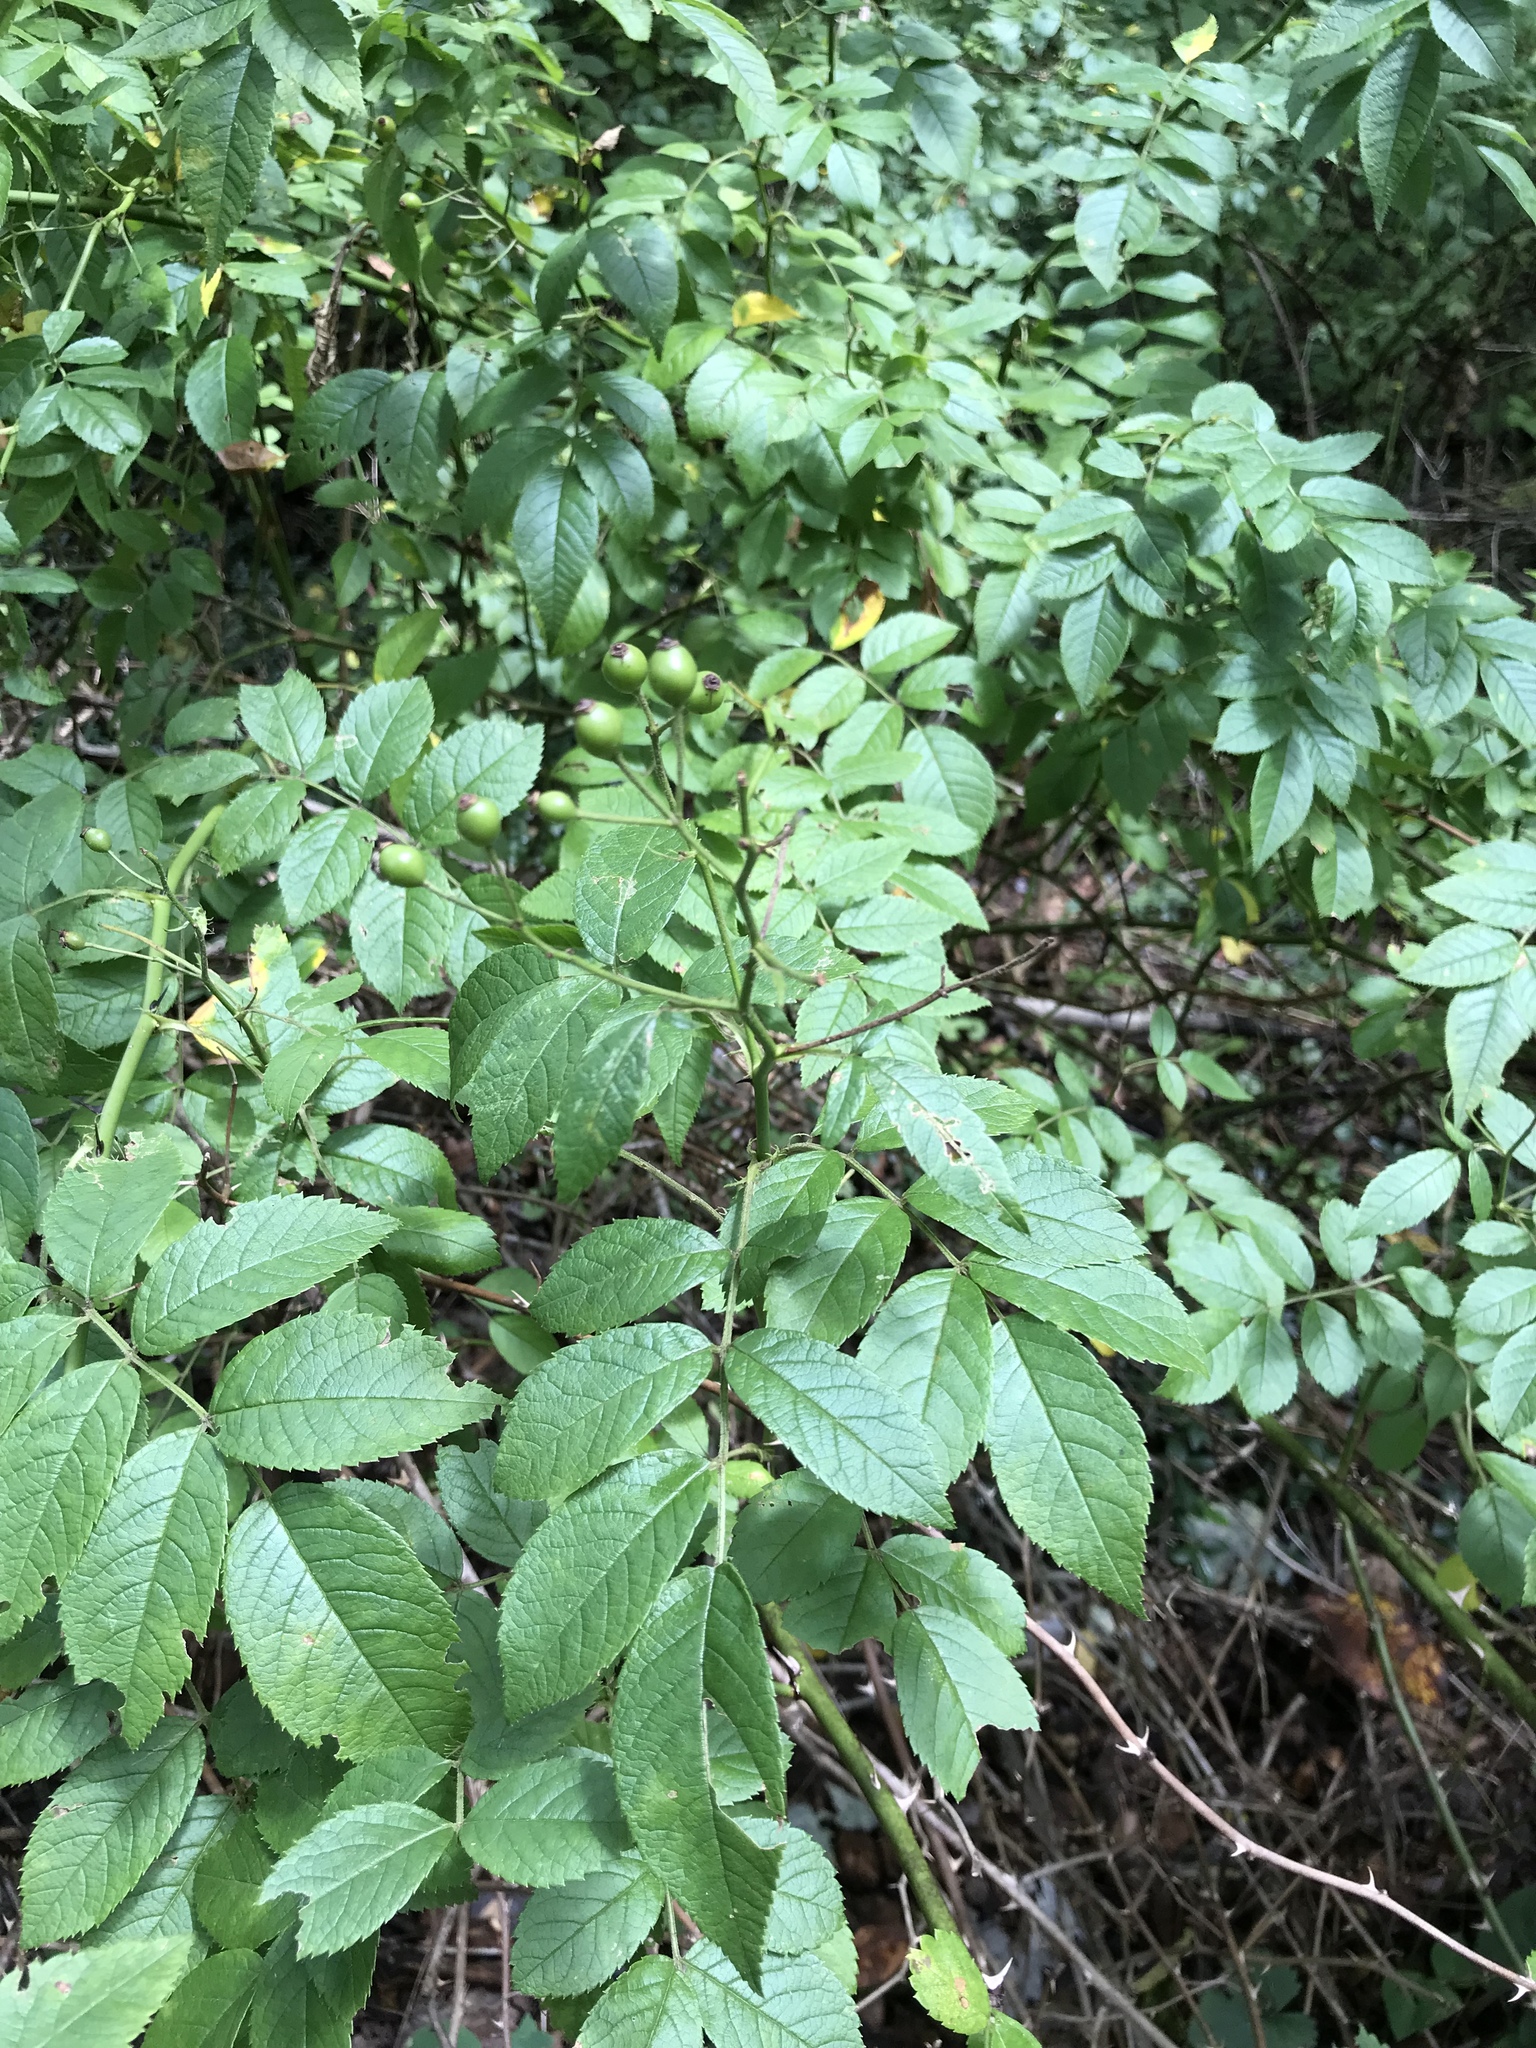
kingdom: Plantae
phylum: Tracheophyta
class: Magnoliopsida
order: Rosales
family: Rosaceae
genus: Rosa
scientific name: Rosa multiflora
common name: Multiflora rose
